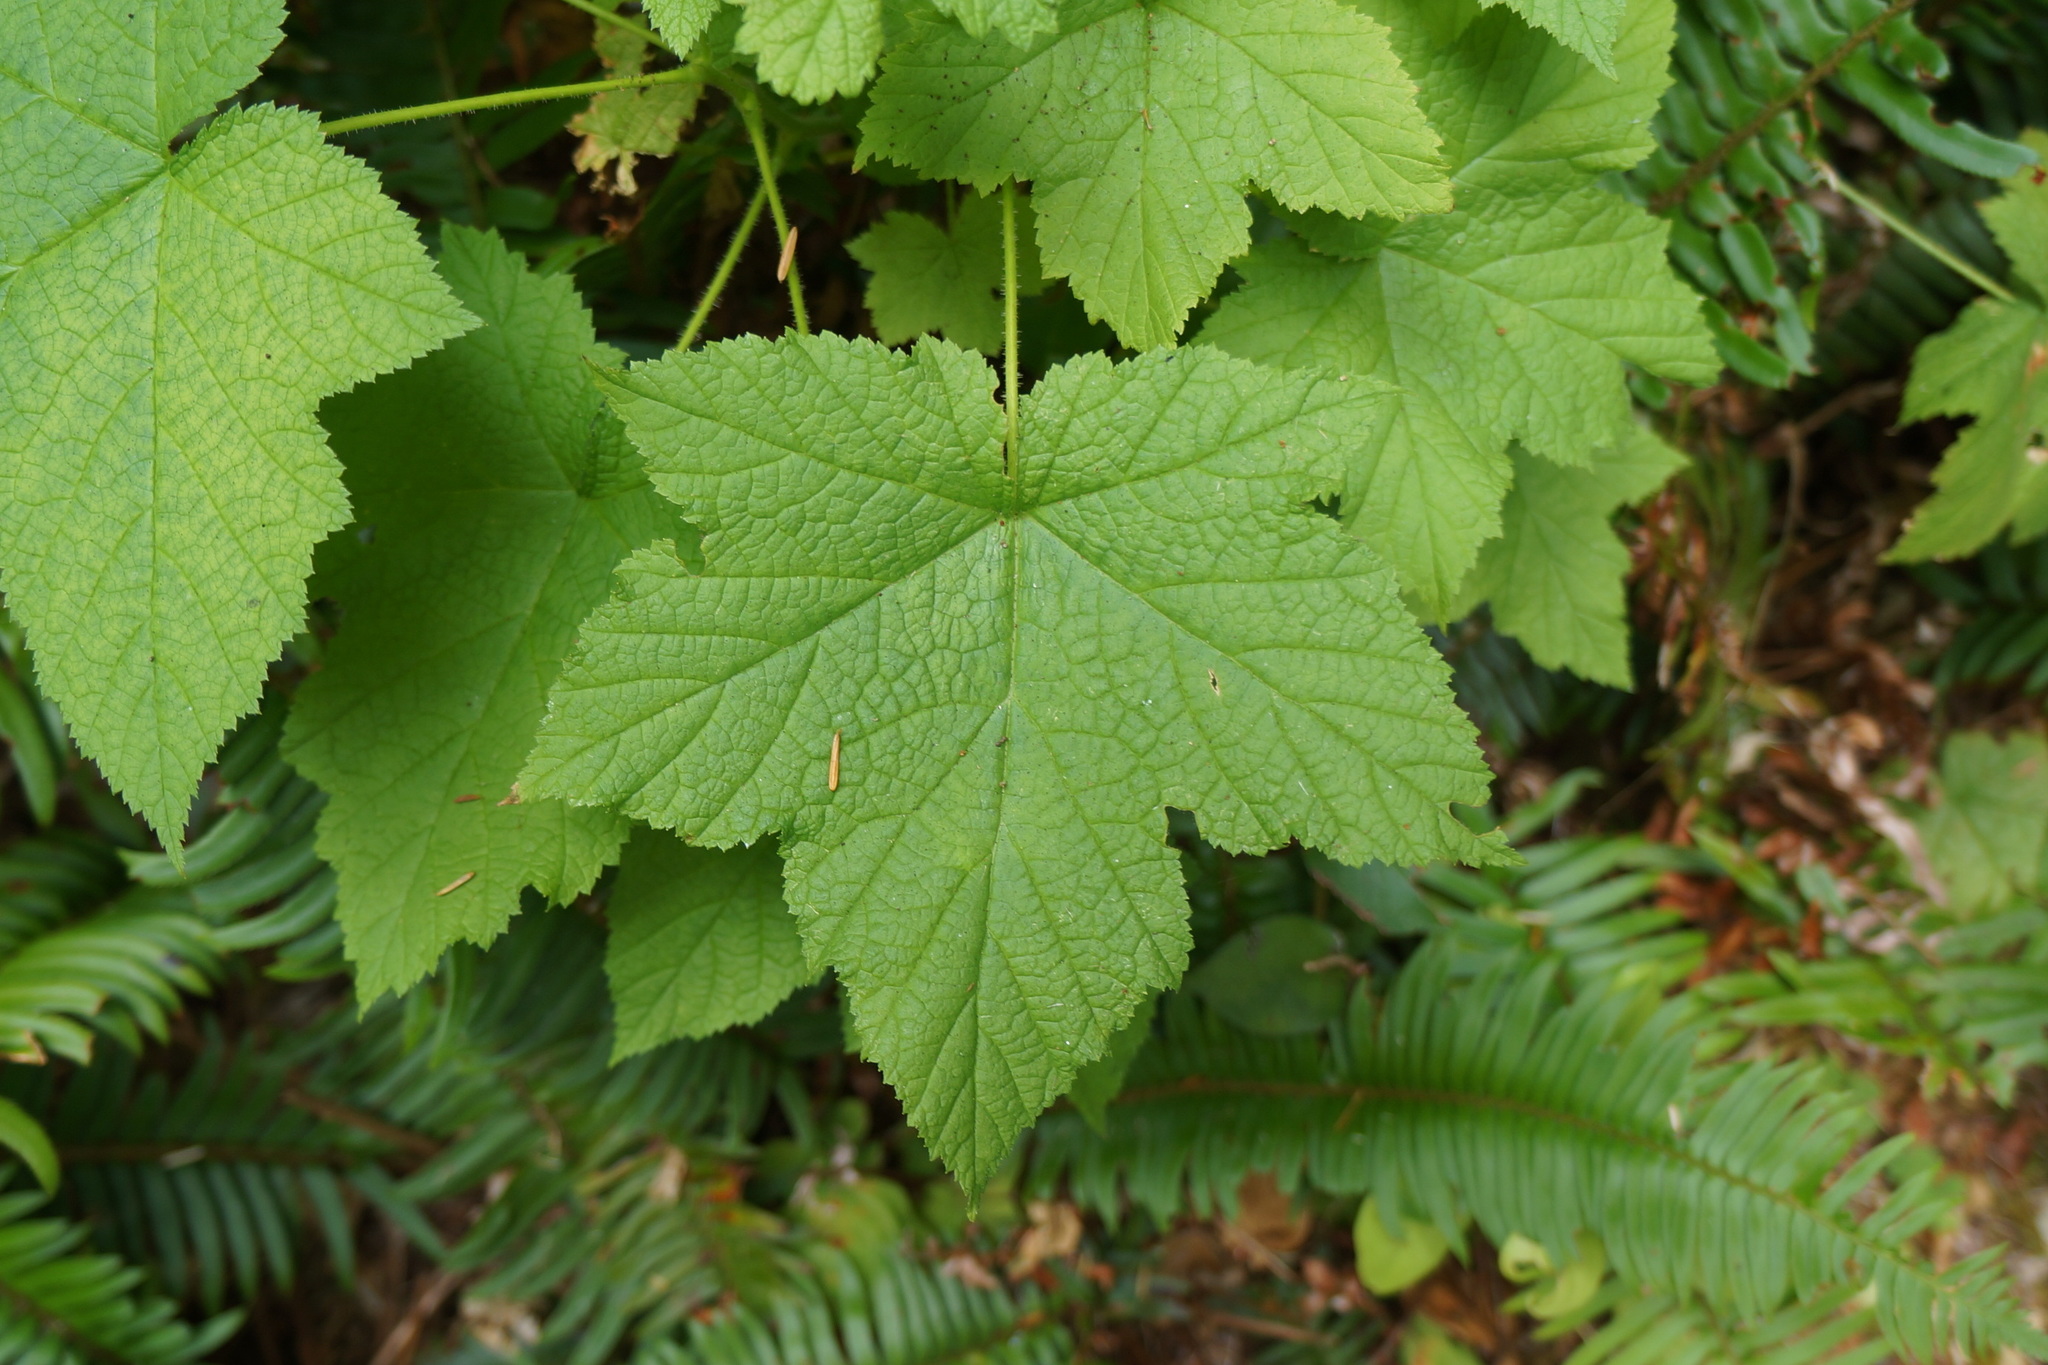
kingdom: Plantae
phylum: Tracheophyta
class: Magnoliopsida
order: Rosales
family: Rosaceae
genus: Rubus
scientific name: Rubus parviflorus
